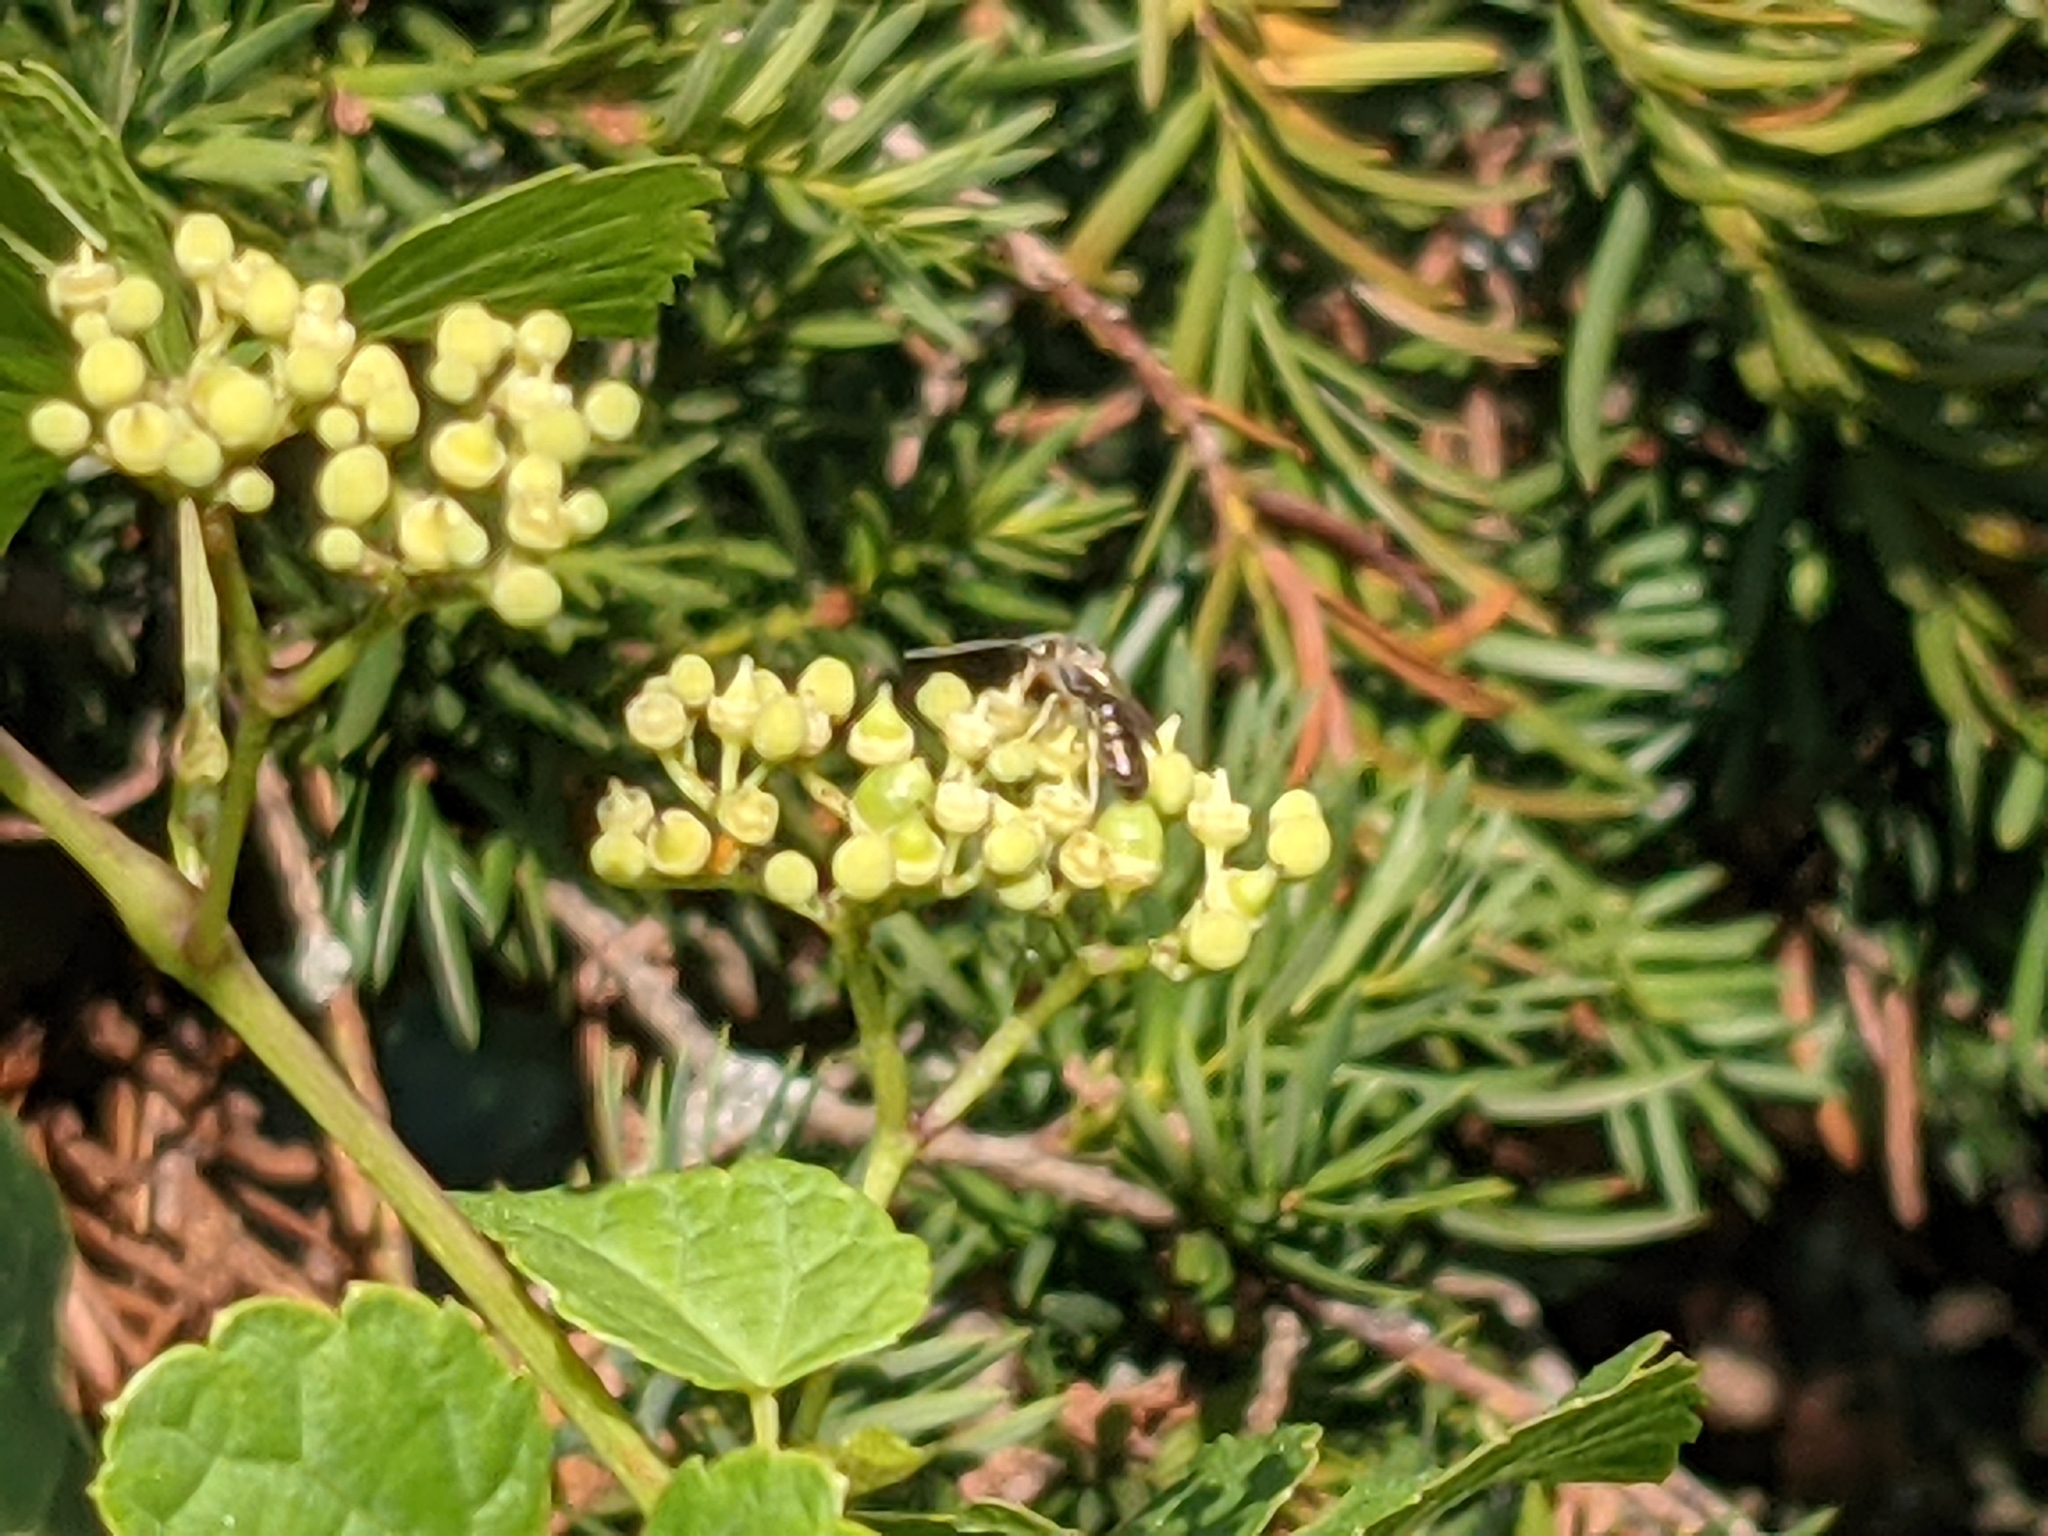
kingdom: Animalia
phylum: Arthropoda
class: Insecta
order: Hymenoptera
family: Halictidae
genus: Halictus
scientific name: Halictus confusus
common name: Southern bronze furrow bee
